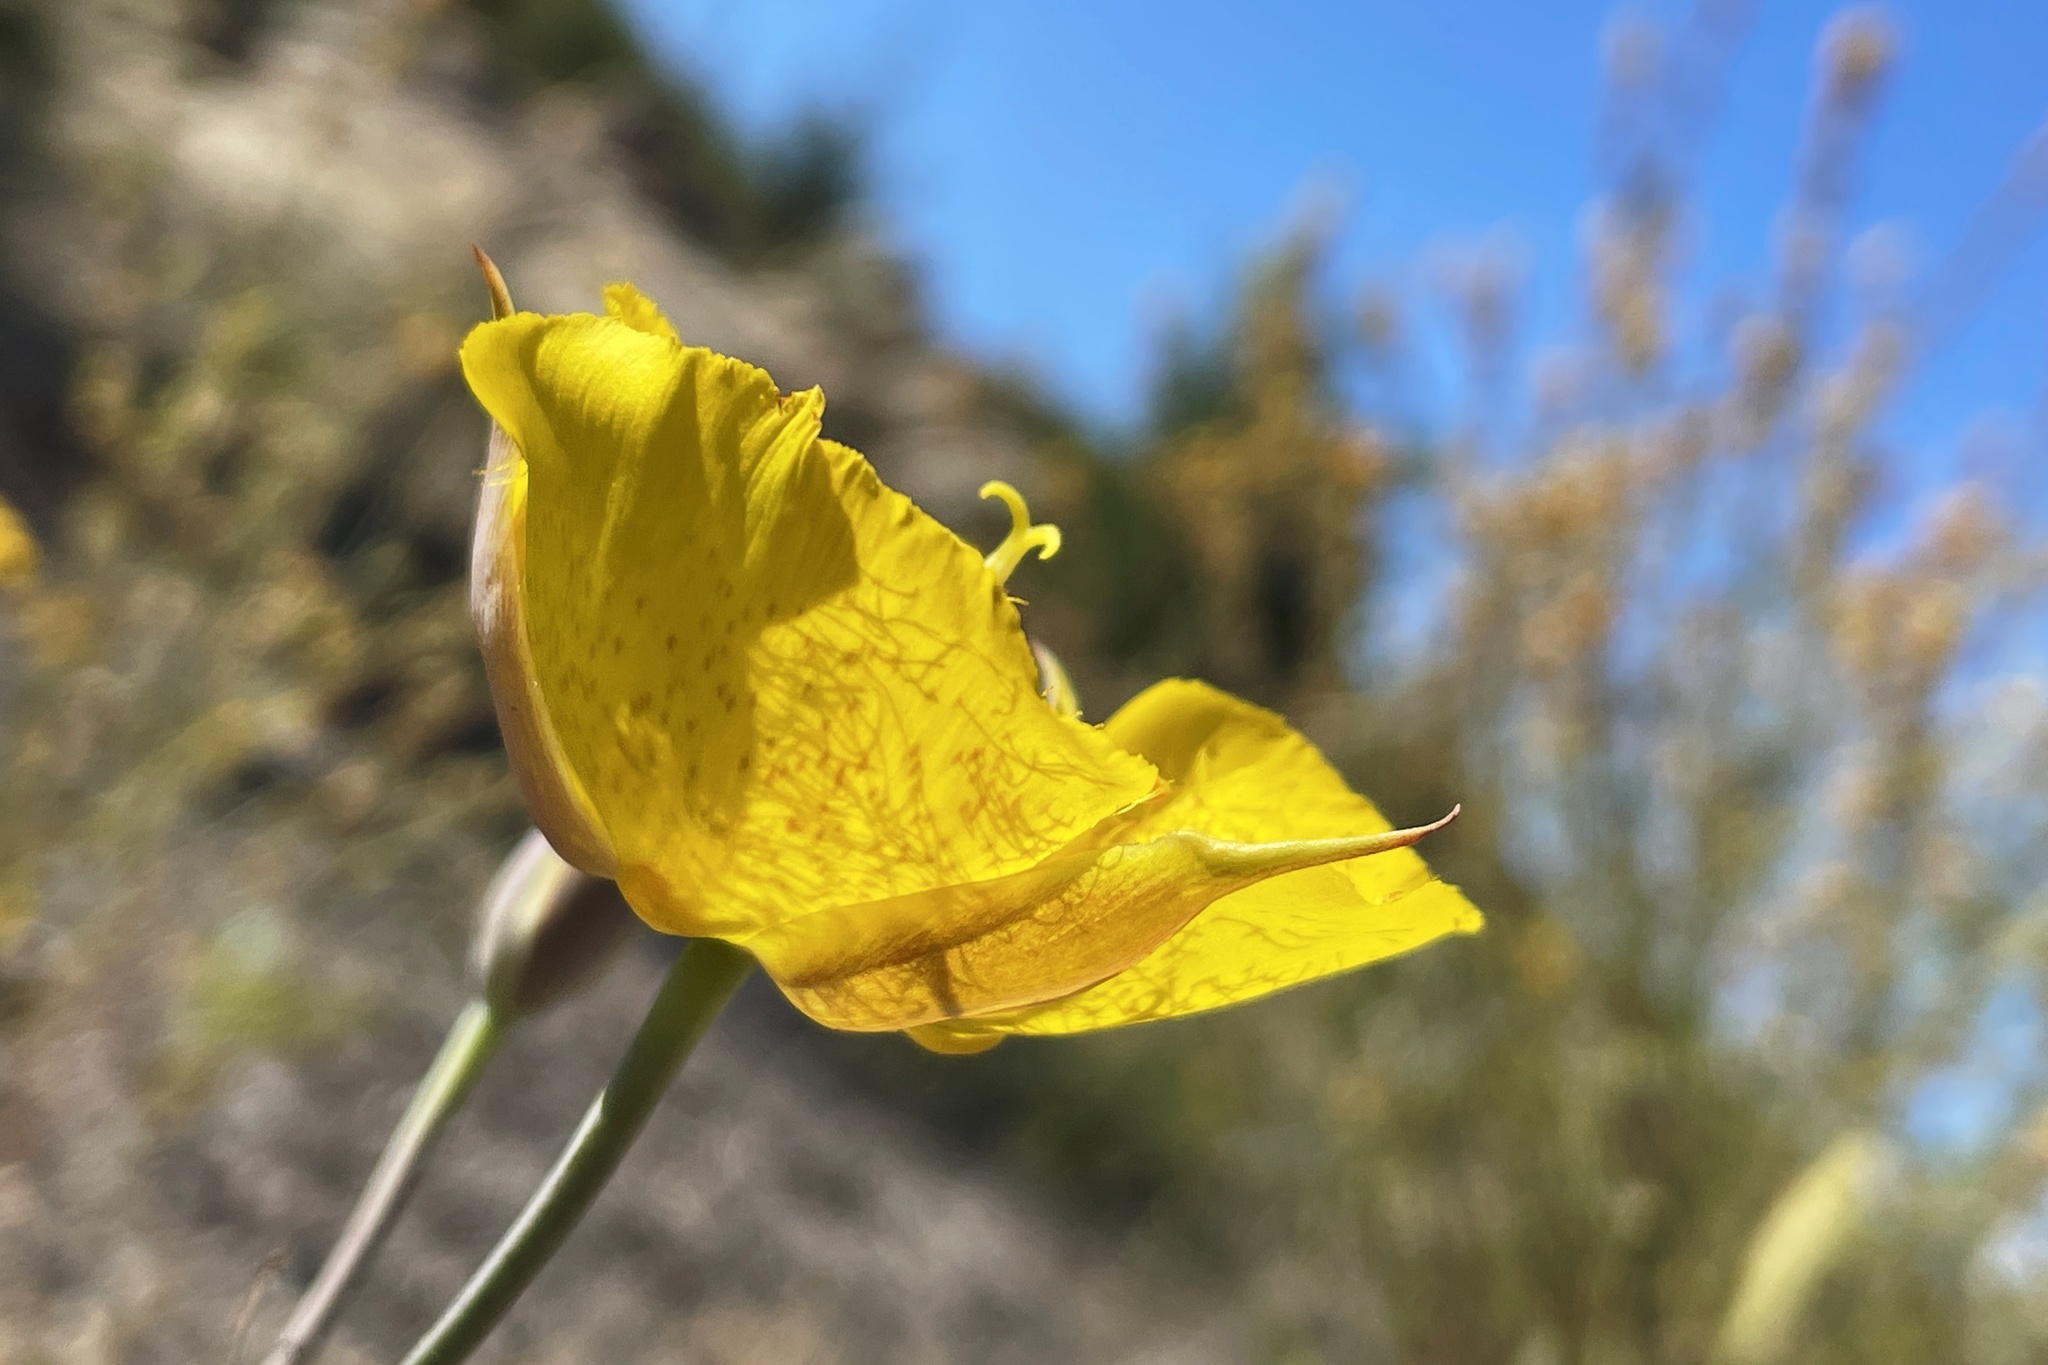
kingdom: Plantae
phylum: Tracheophyta
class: Liliopsida
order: Liliales
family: Liliaceae
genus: Calochortus
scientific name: Calochortus weedii
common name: Weed's mariposa-lily
